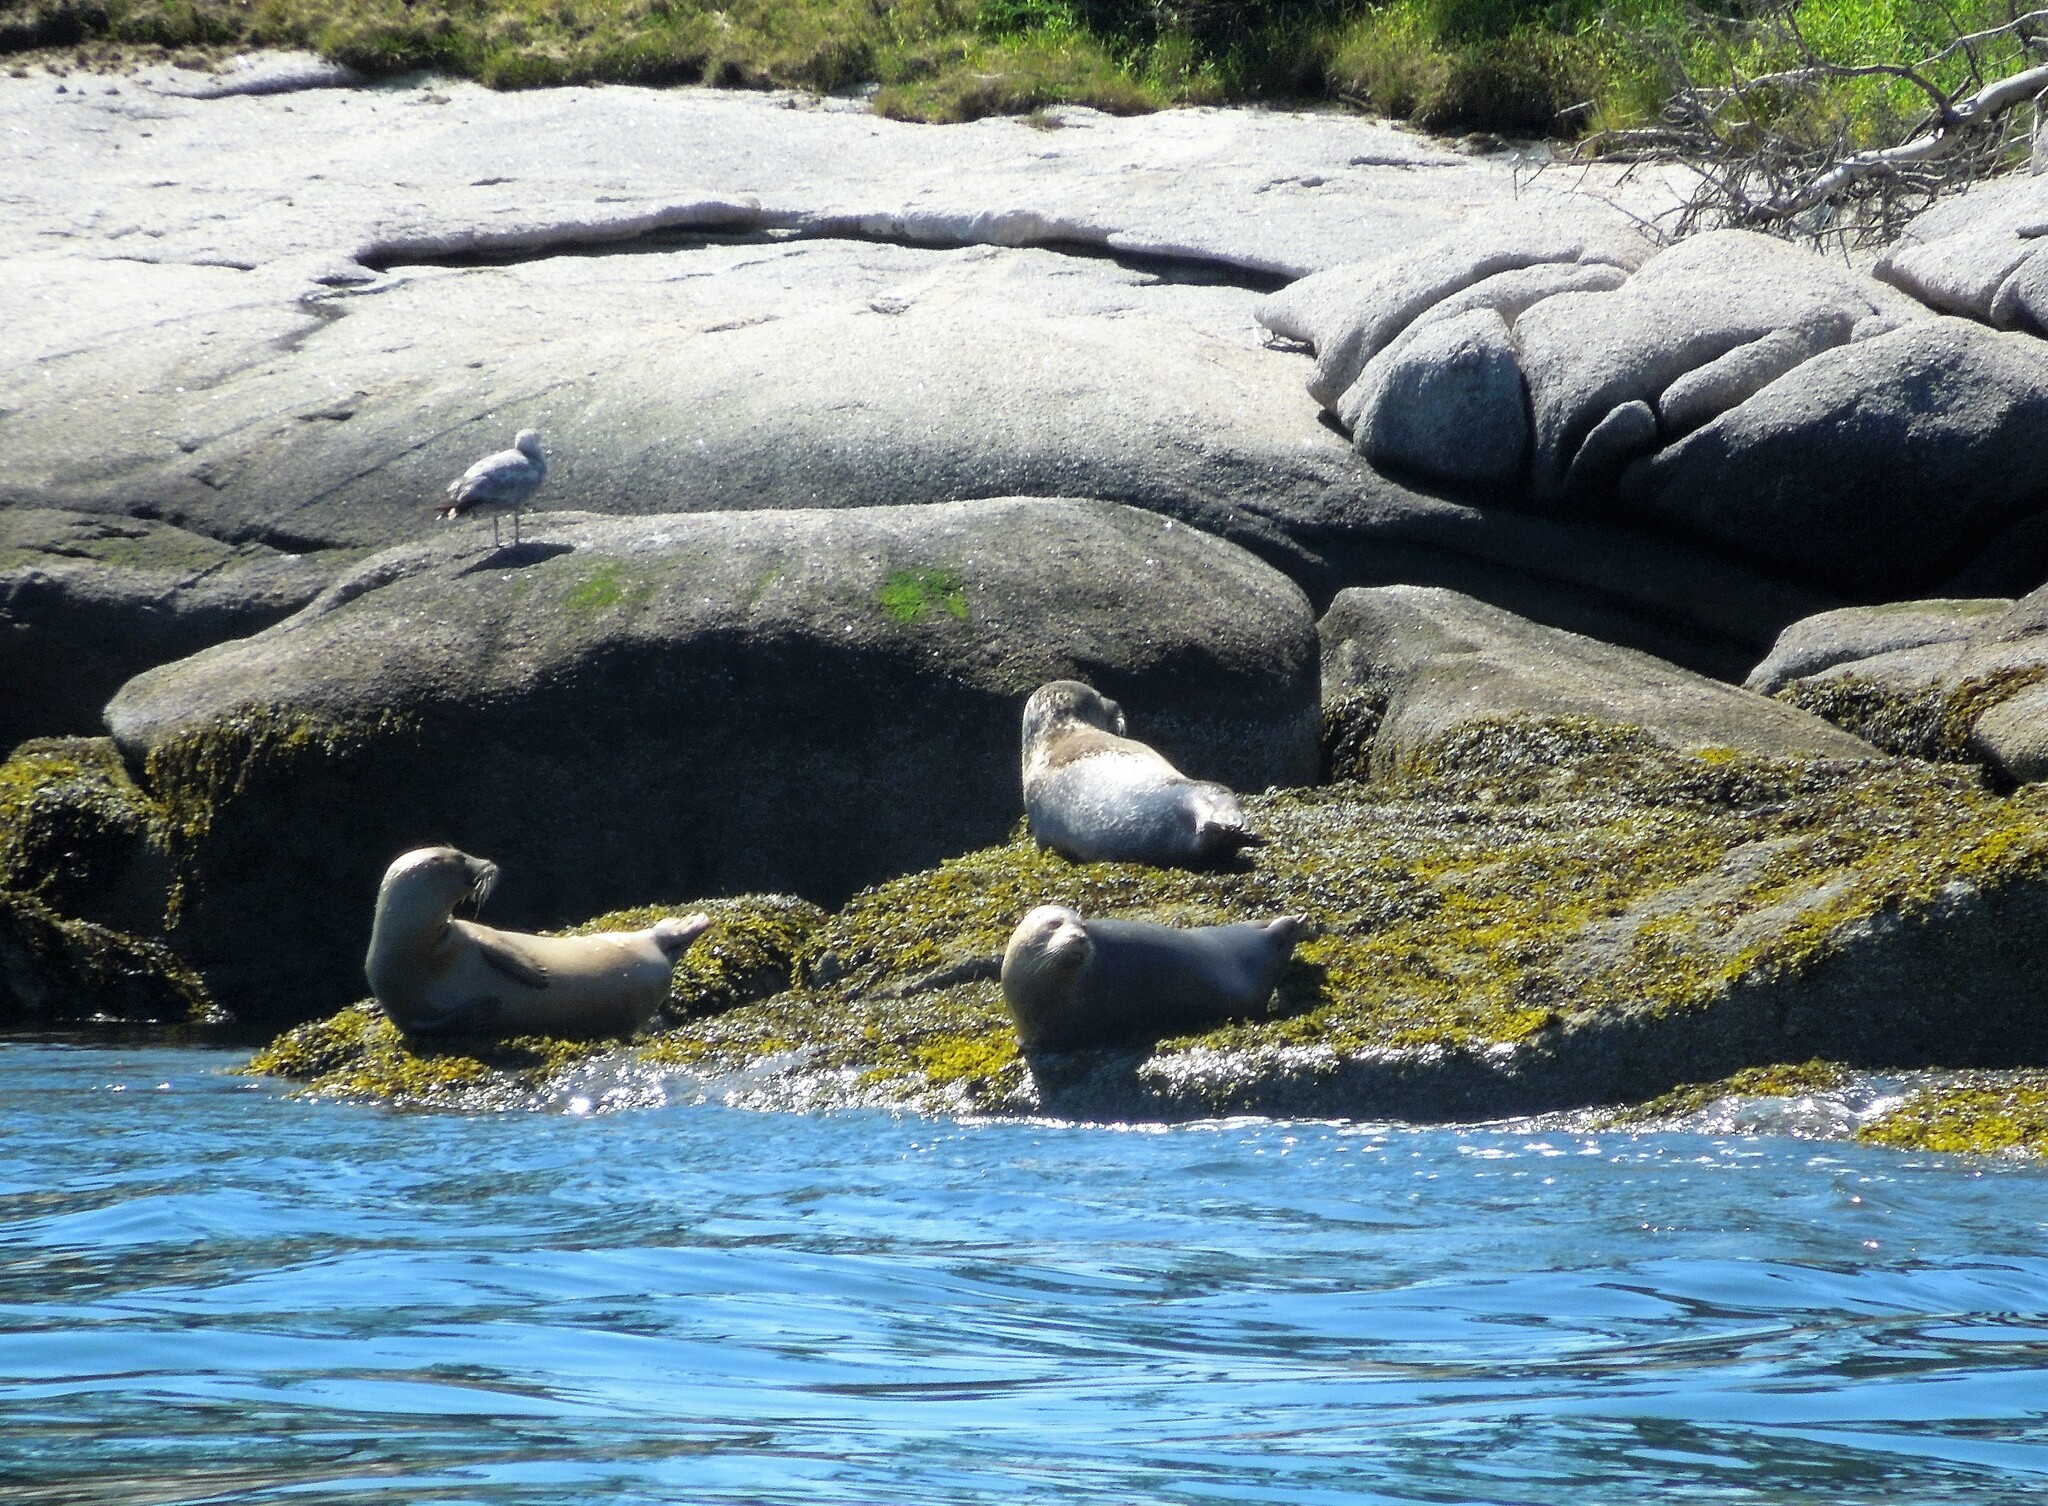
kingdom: Animalia
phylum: Chordata
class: Mammalia
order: Carnivora
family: Phocidae
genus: Phoca
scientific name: Phoca vitulina
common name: Harbor seal
